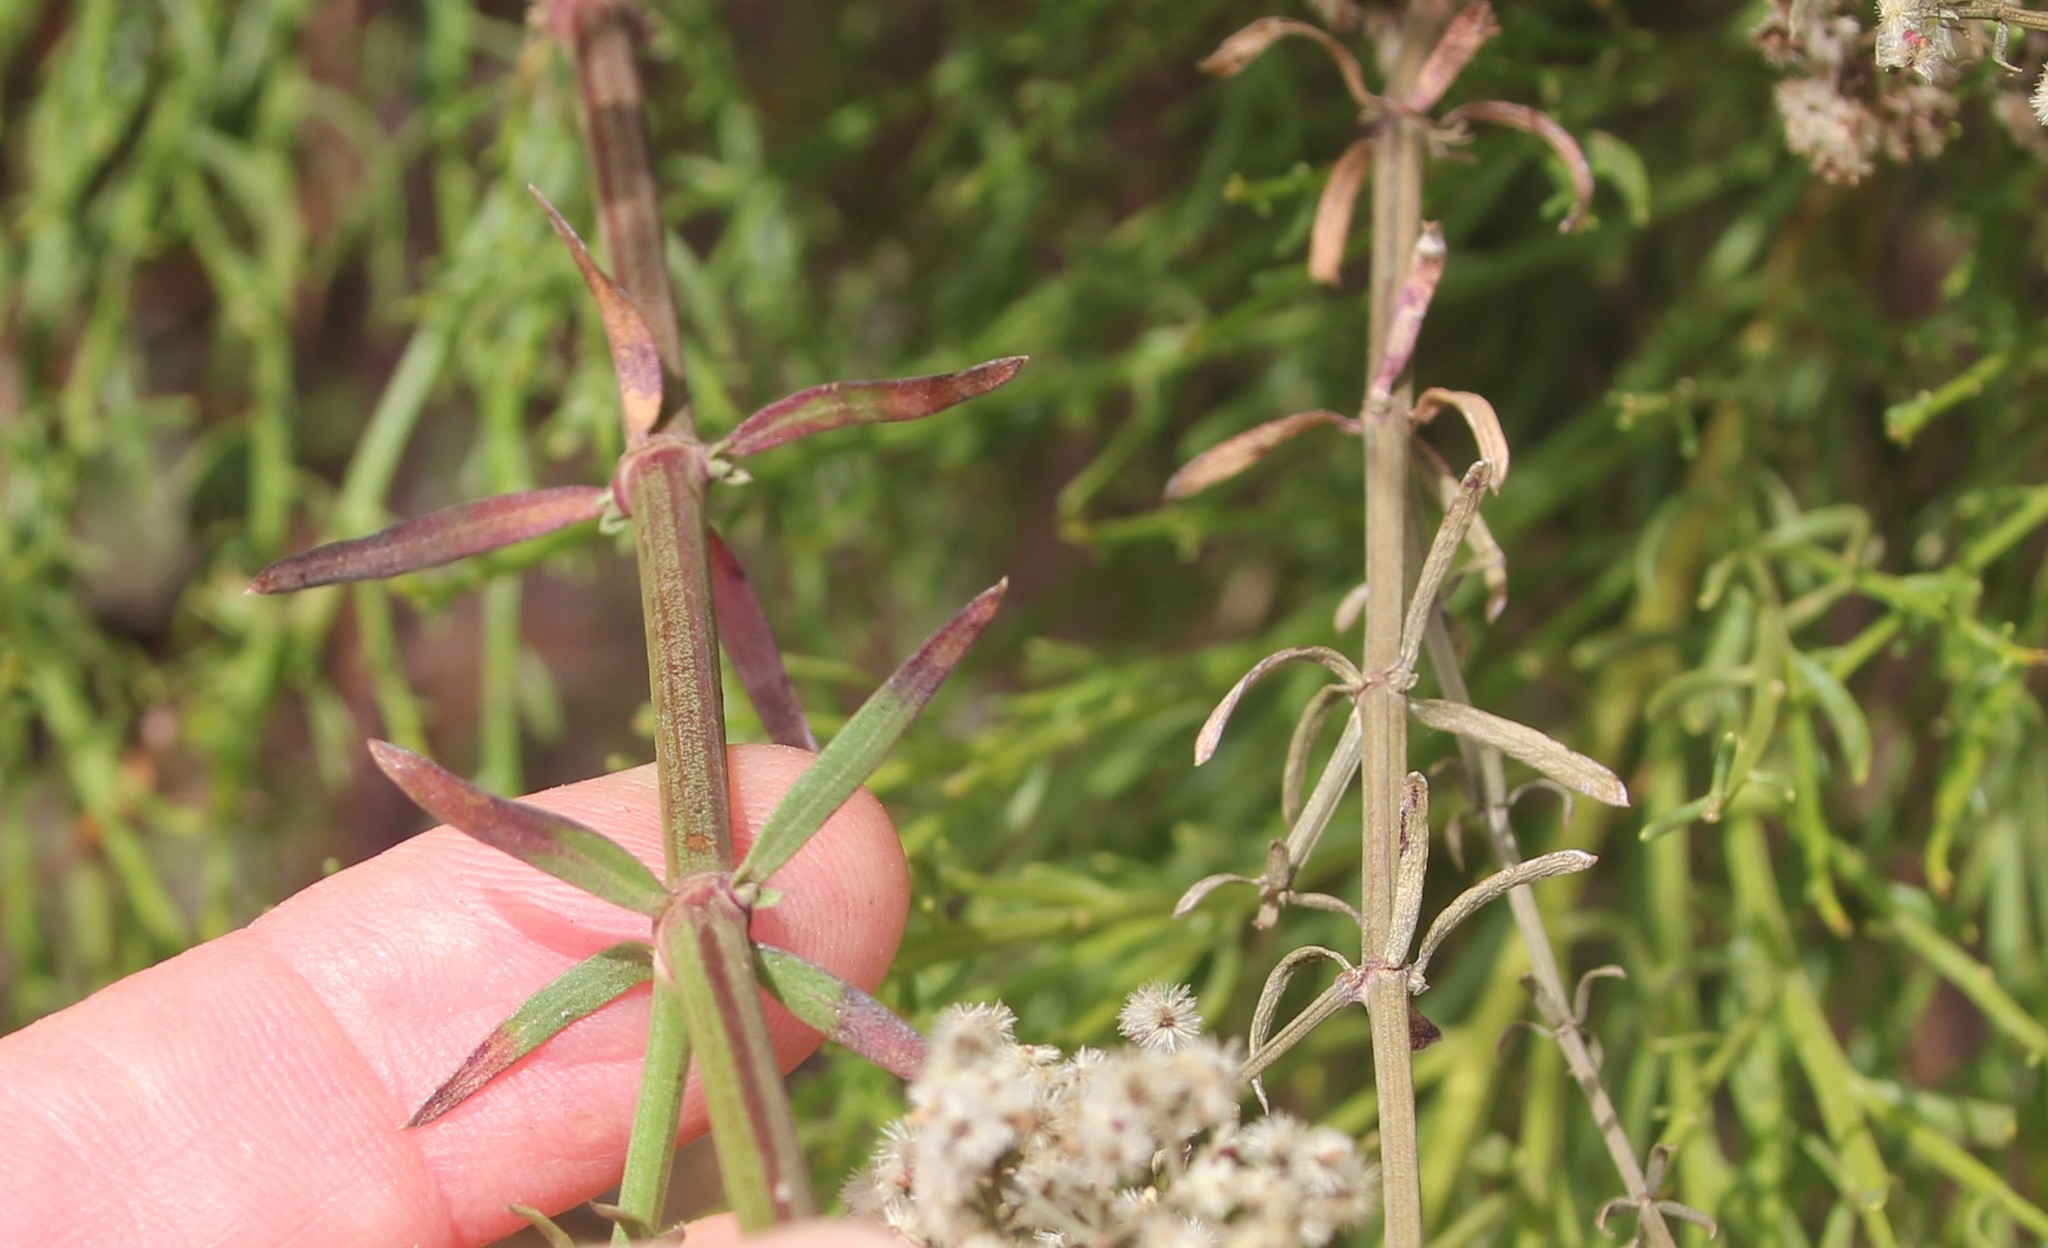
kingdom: Plantae
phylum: Tracheophyta
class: Magnoliopsida
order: Gentianales
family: Rubiaceae
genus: Galium
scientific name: Galium angustifolium
